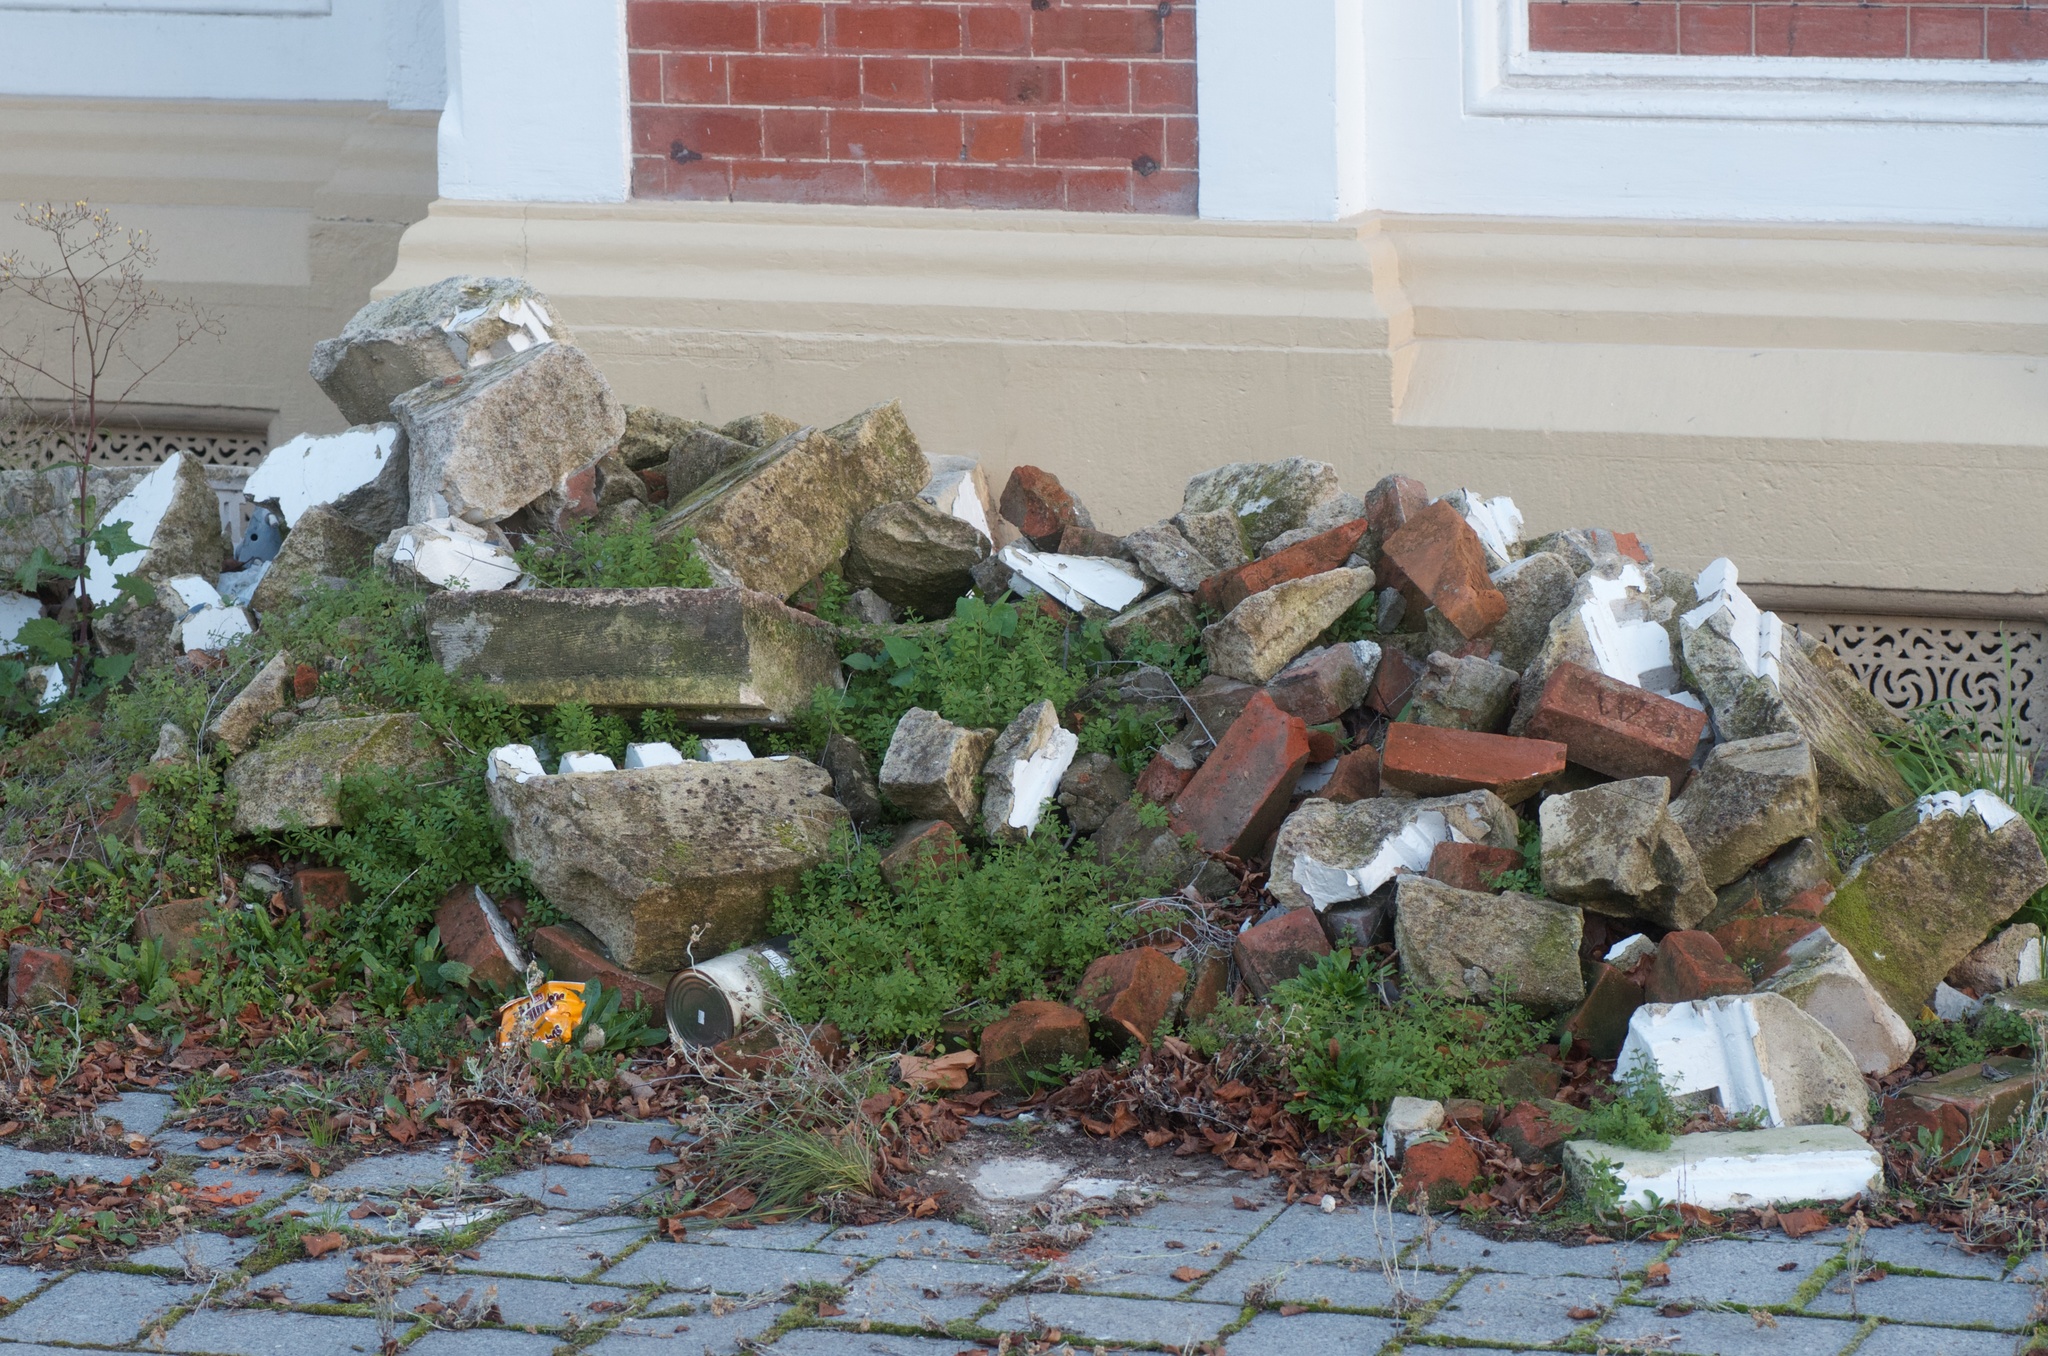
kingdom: Plantae
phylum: Tracheophyta
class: Magnoliopsida
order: Gentianales
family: Rubiaceae
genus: Galium
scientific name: Galium aparine
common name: Cleavers
